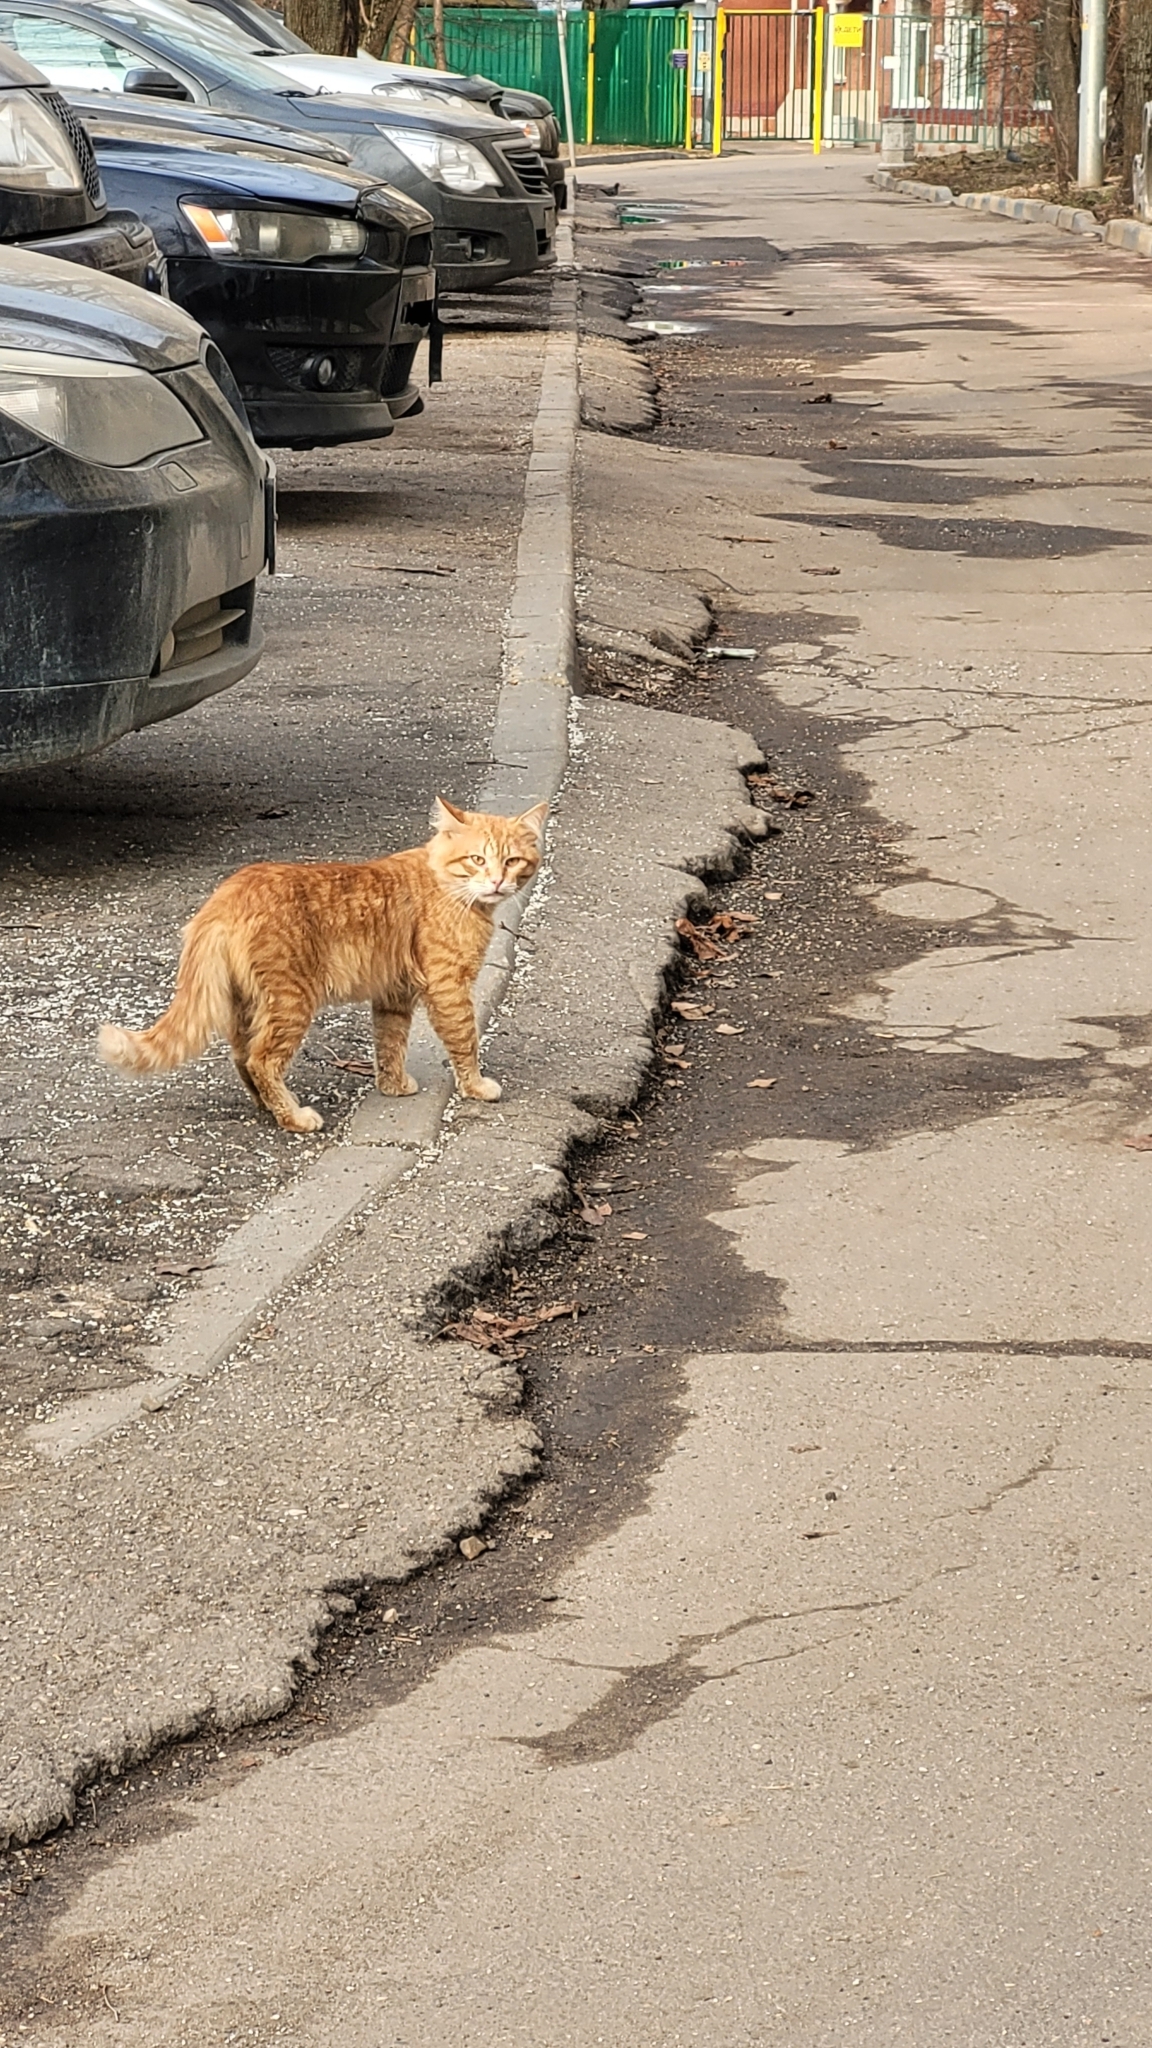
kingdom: Animalia
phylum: Chordata
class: Mammalia
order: Carnivora
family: Felidae
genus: Felis
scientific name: Felis catus
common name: Domestic cat
